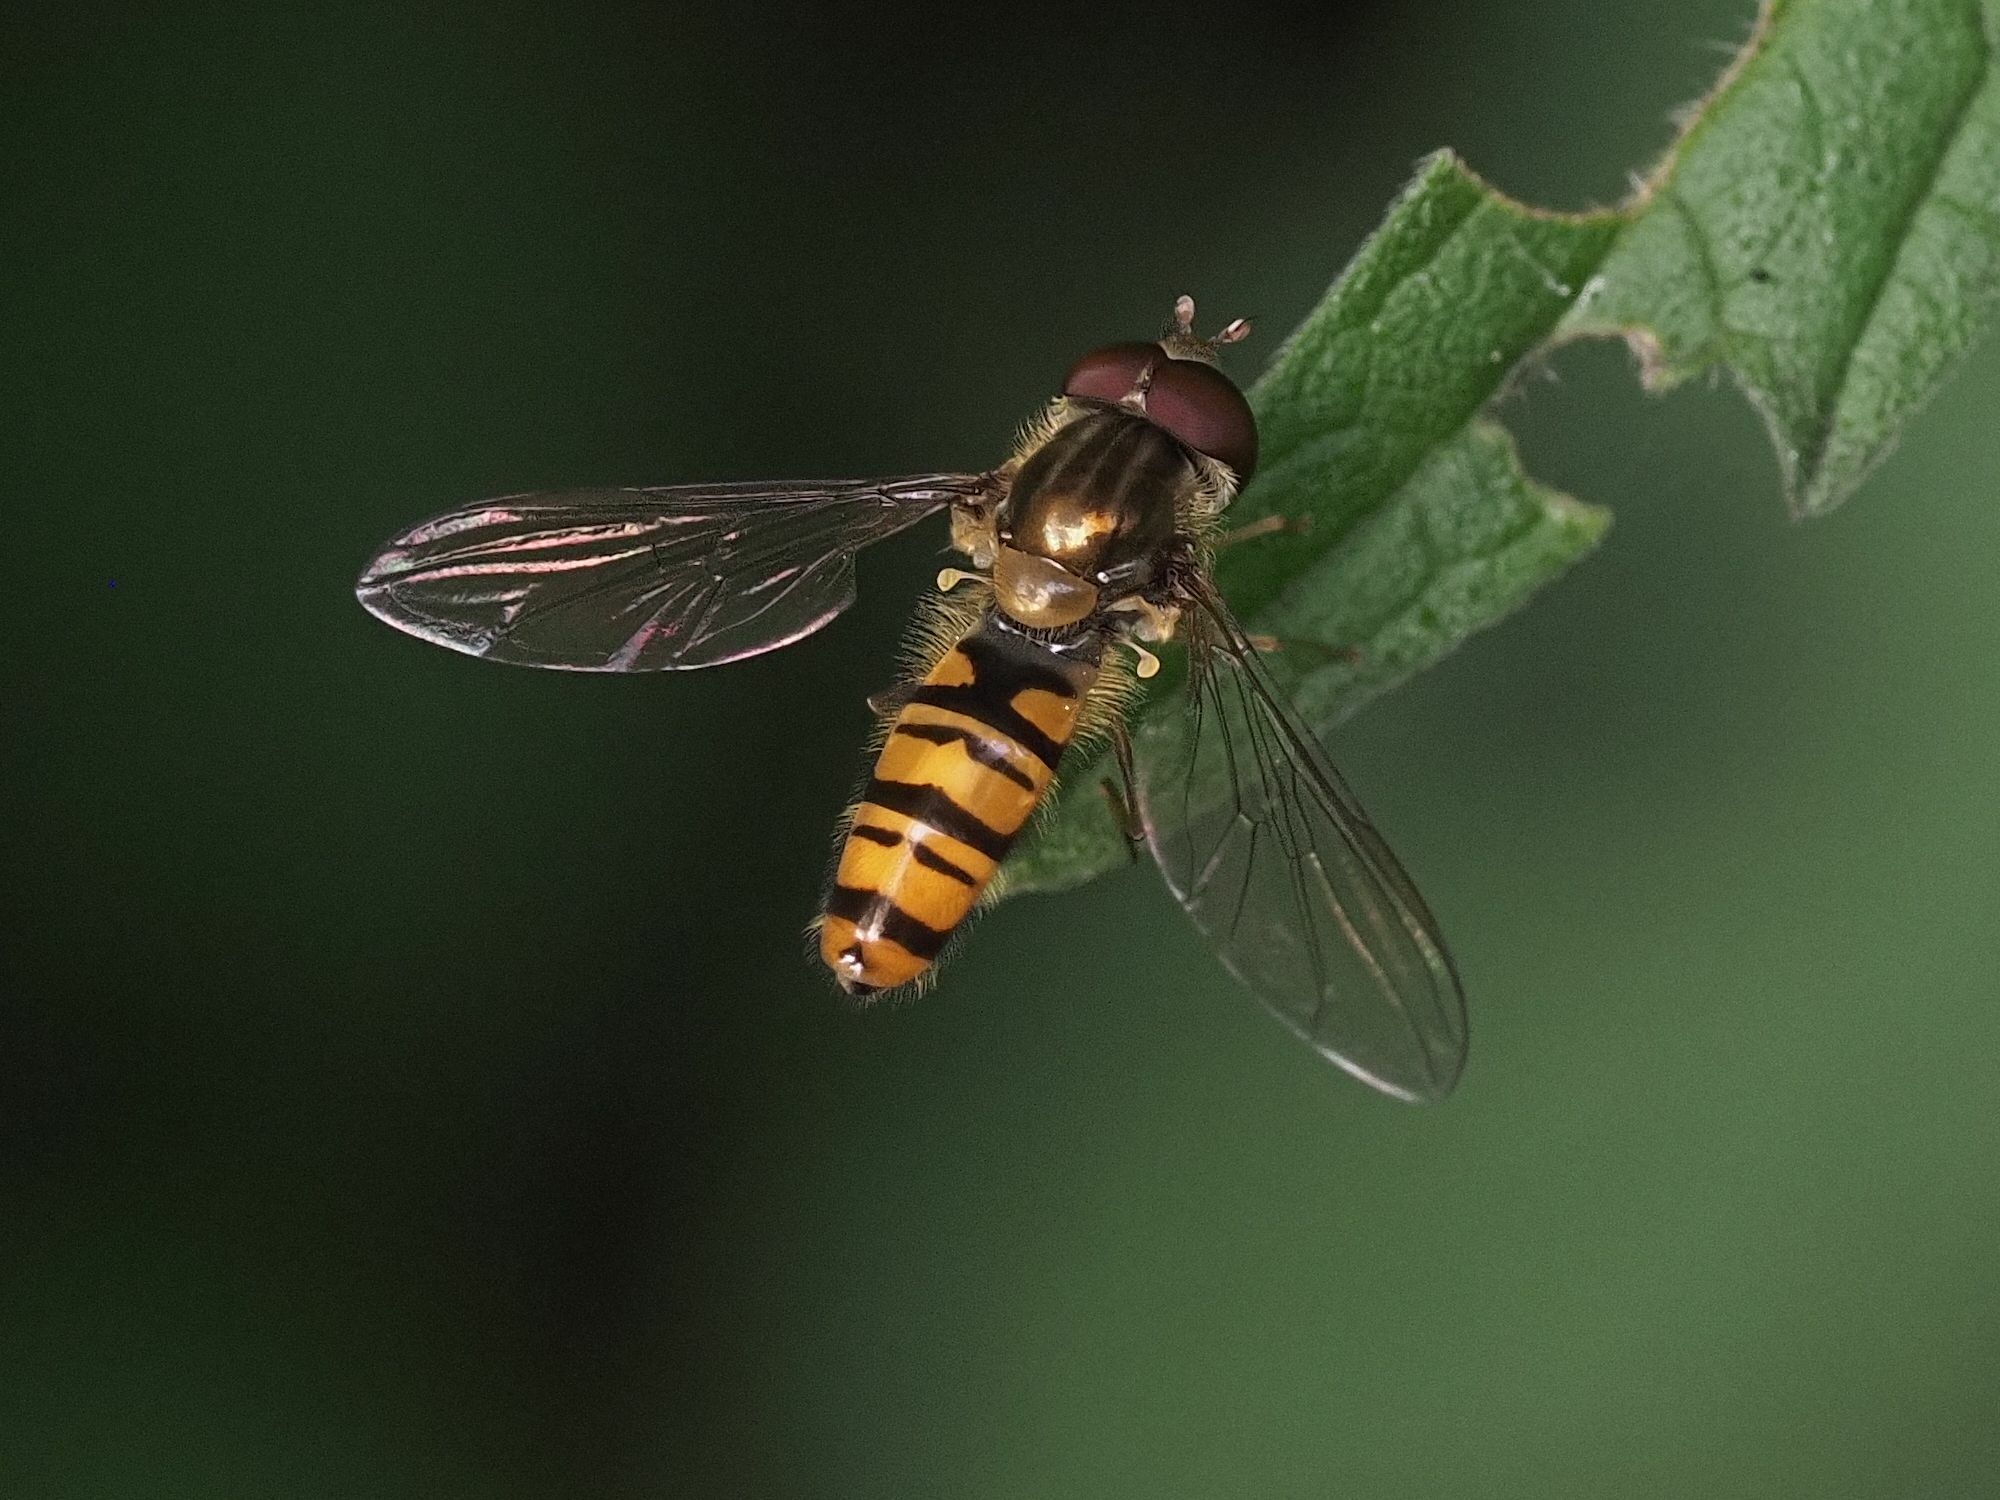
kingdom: Animalia
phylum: Arthropoda
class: Insecta
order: Diptera
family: Syrphidae
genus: Episyrphus
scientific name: Episyrphus balteatus
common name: Marmalade hoverfly
